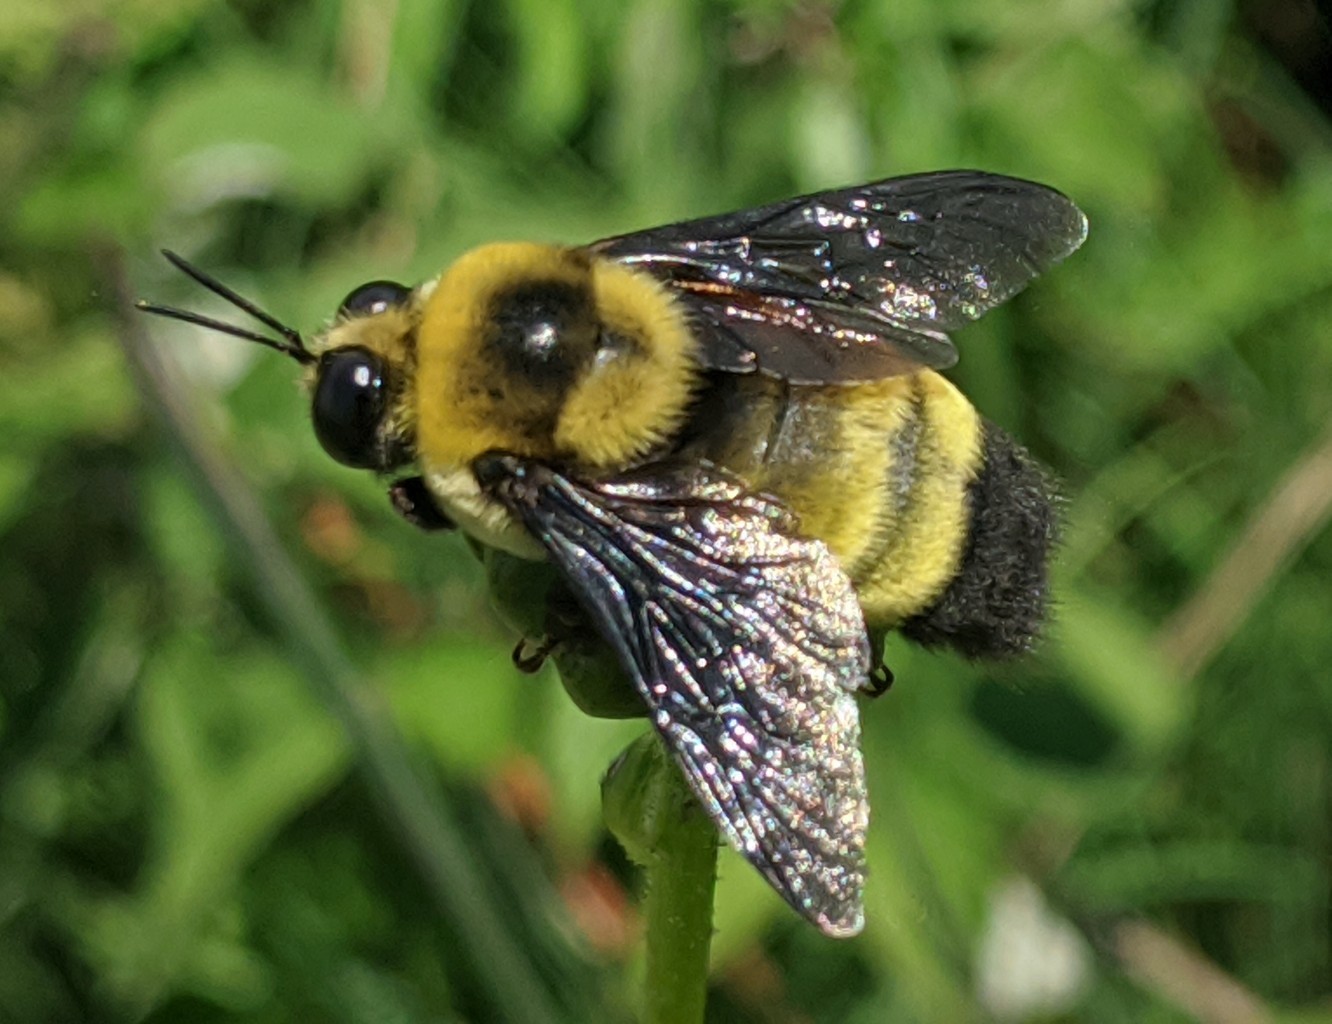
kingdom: Animalia
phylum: Arthropoda
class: Insecta
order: Hymenoptera
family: Apidae
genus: Bombus
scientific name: Bombus auricomus
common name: Black and gold bumble bee
